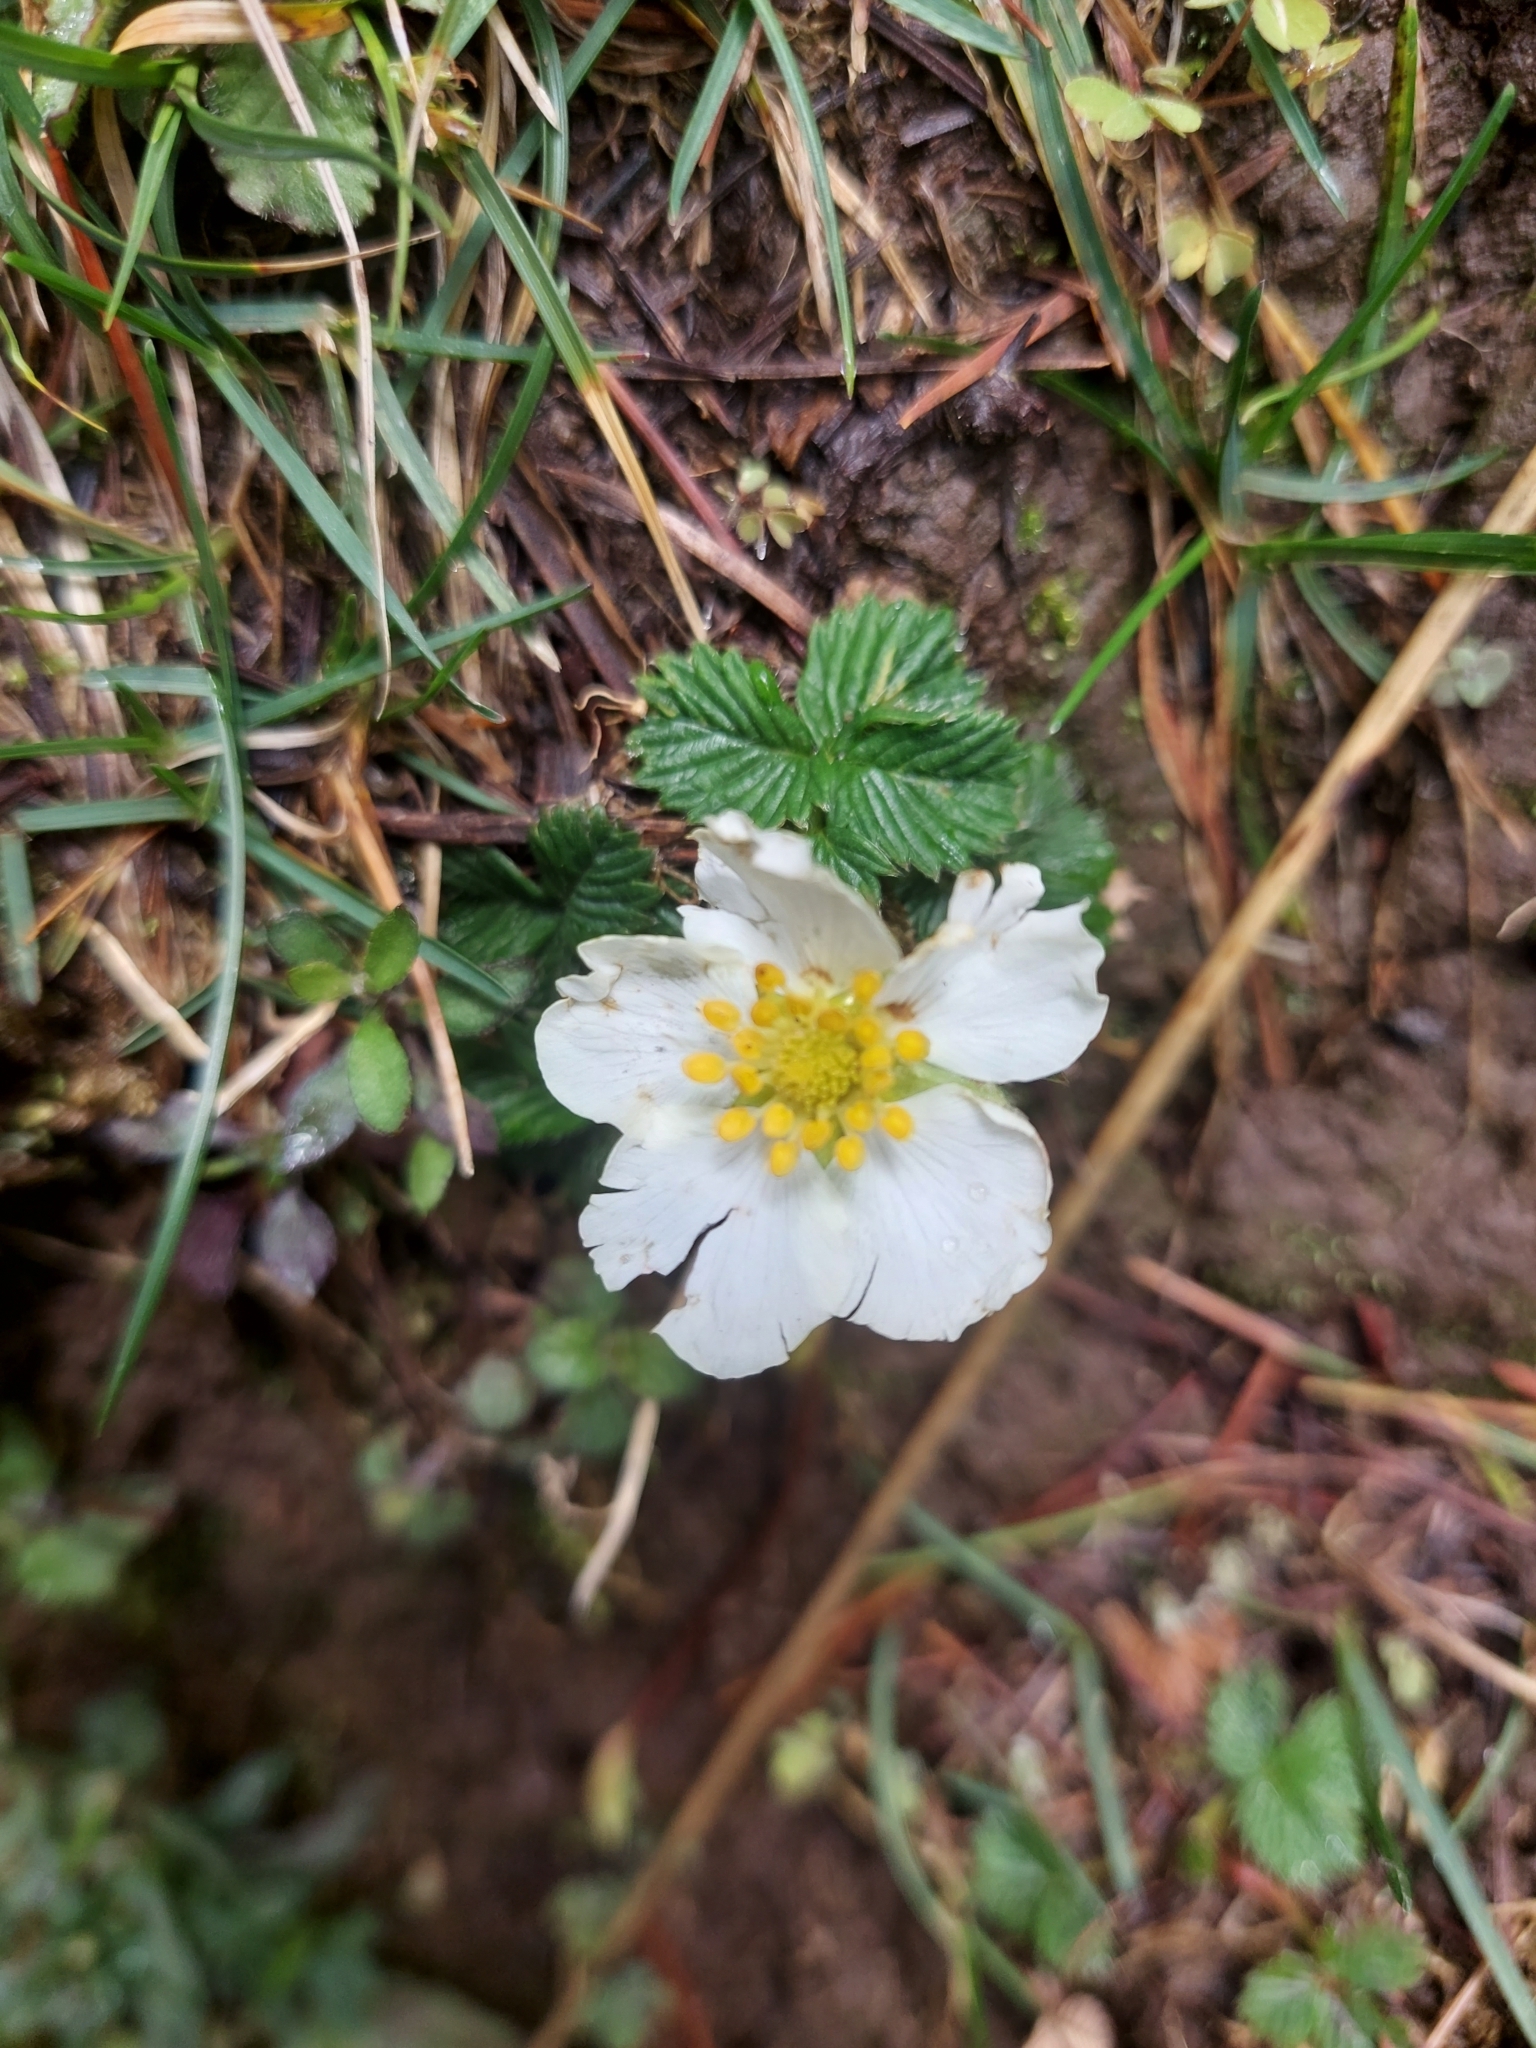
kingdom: Plantae
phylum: Tracheophyta
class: Magnoliopsida
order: Rosales
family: Rosaceae
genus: Fragaria
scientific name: Fragaria nubicola
